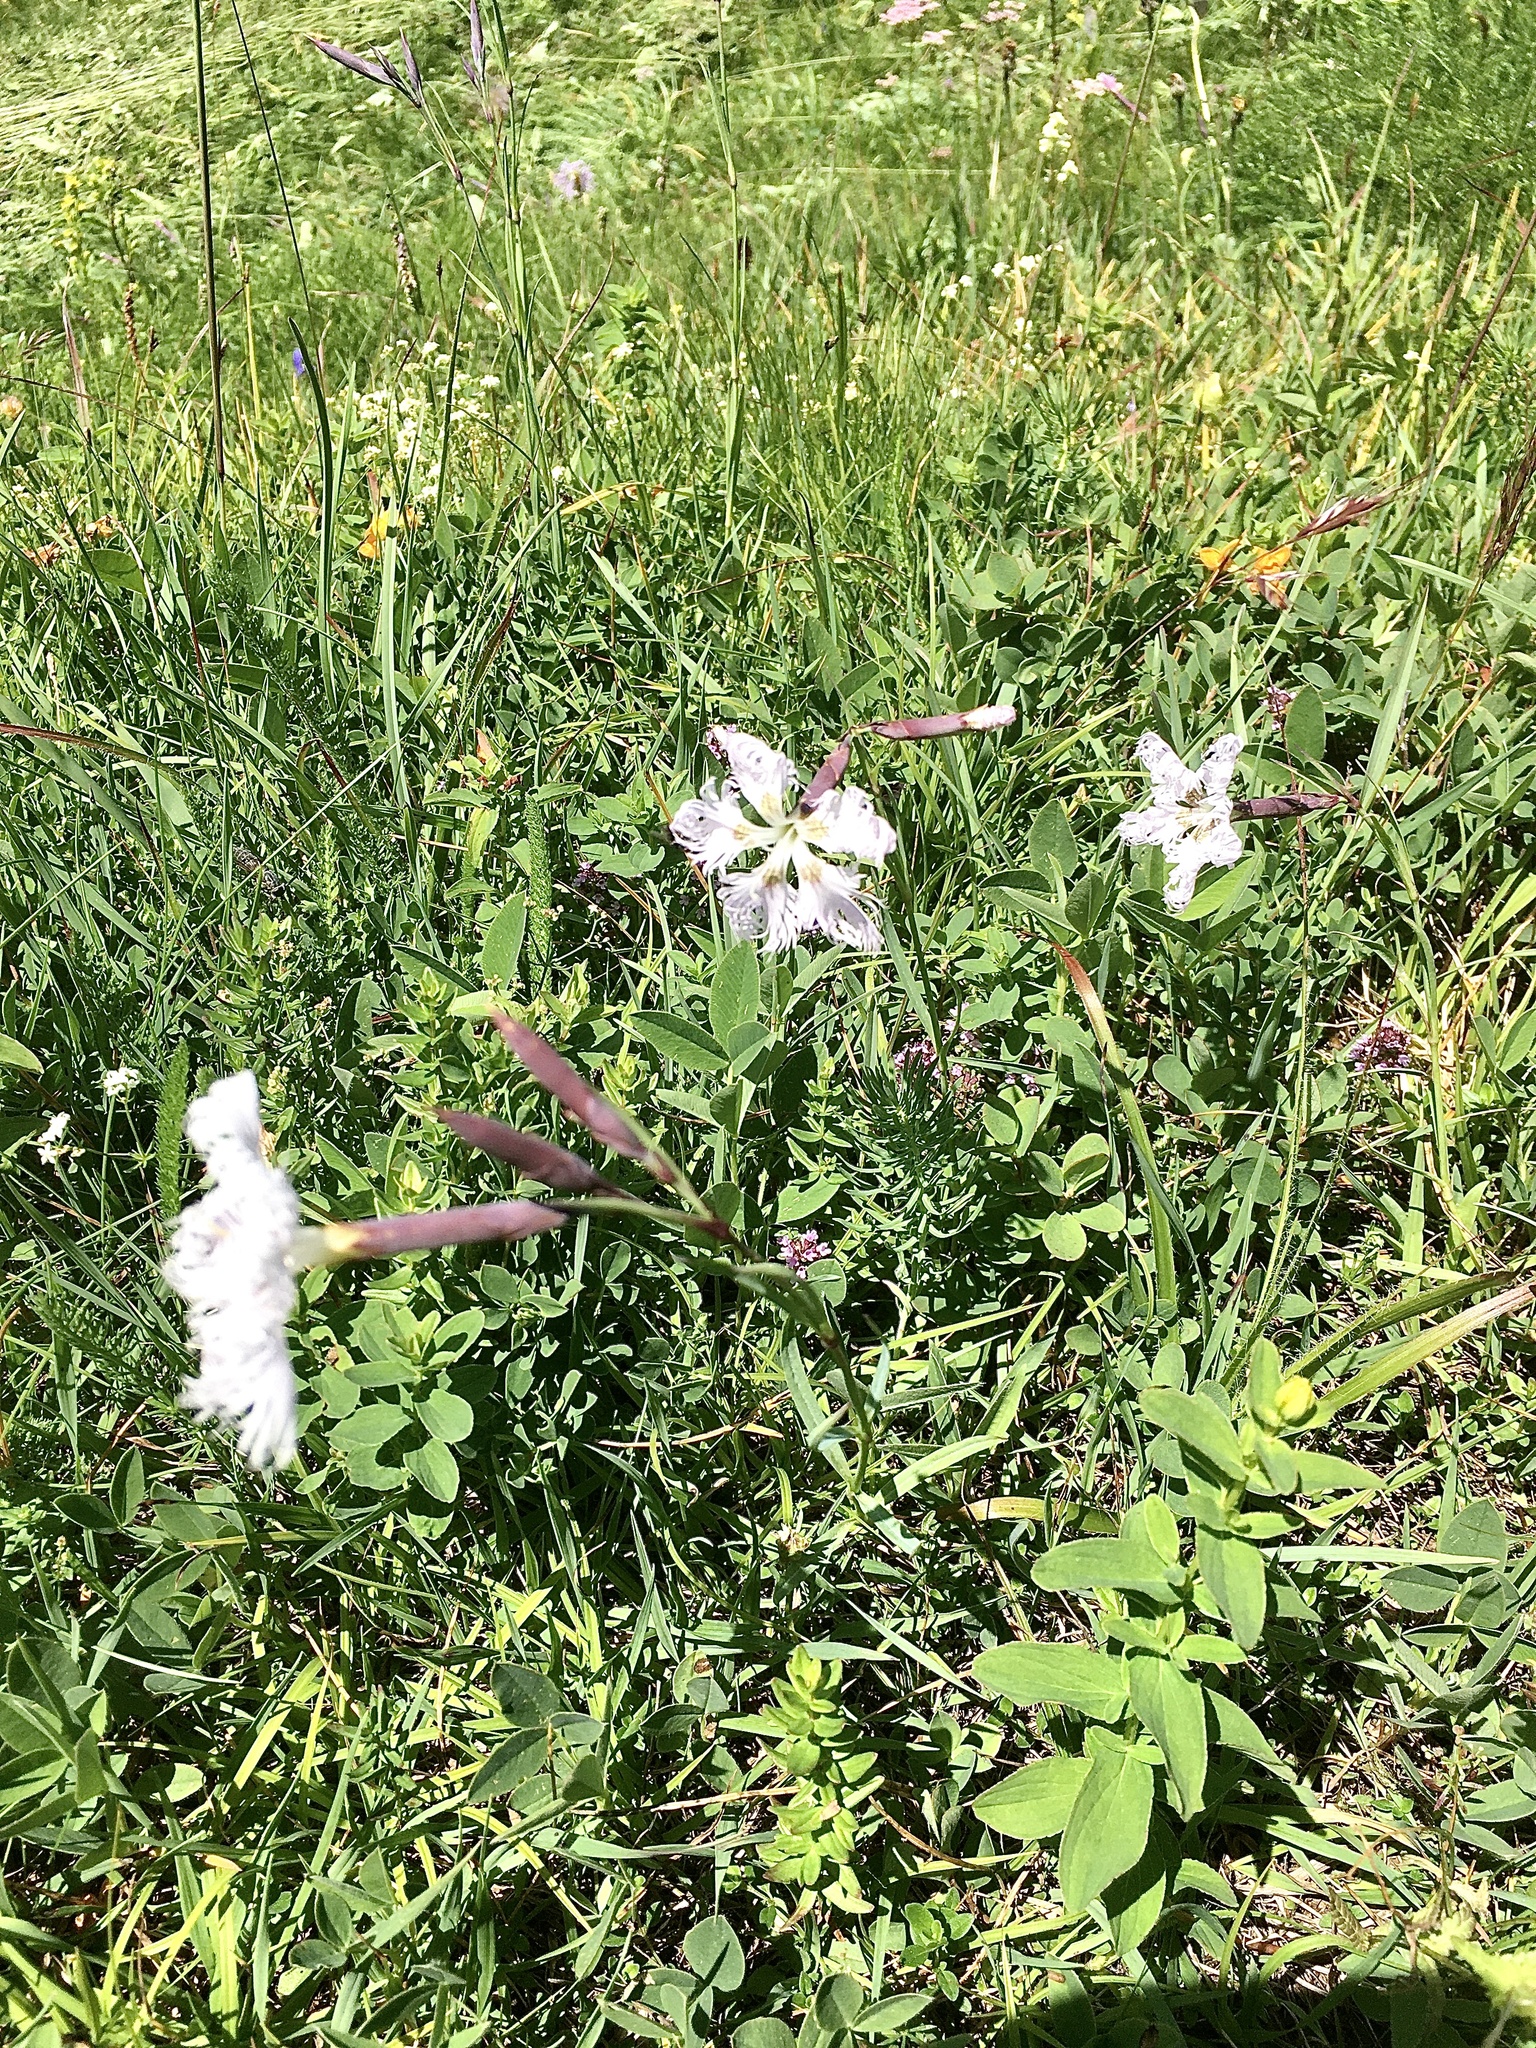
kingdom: Plantae
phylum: Tracheophyta
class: Magnoliopsida
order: Caryophyllales
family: Caryophyllaceae
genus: Dianthus
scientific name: Dianthus superbus
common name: Fringed pink
